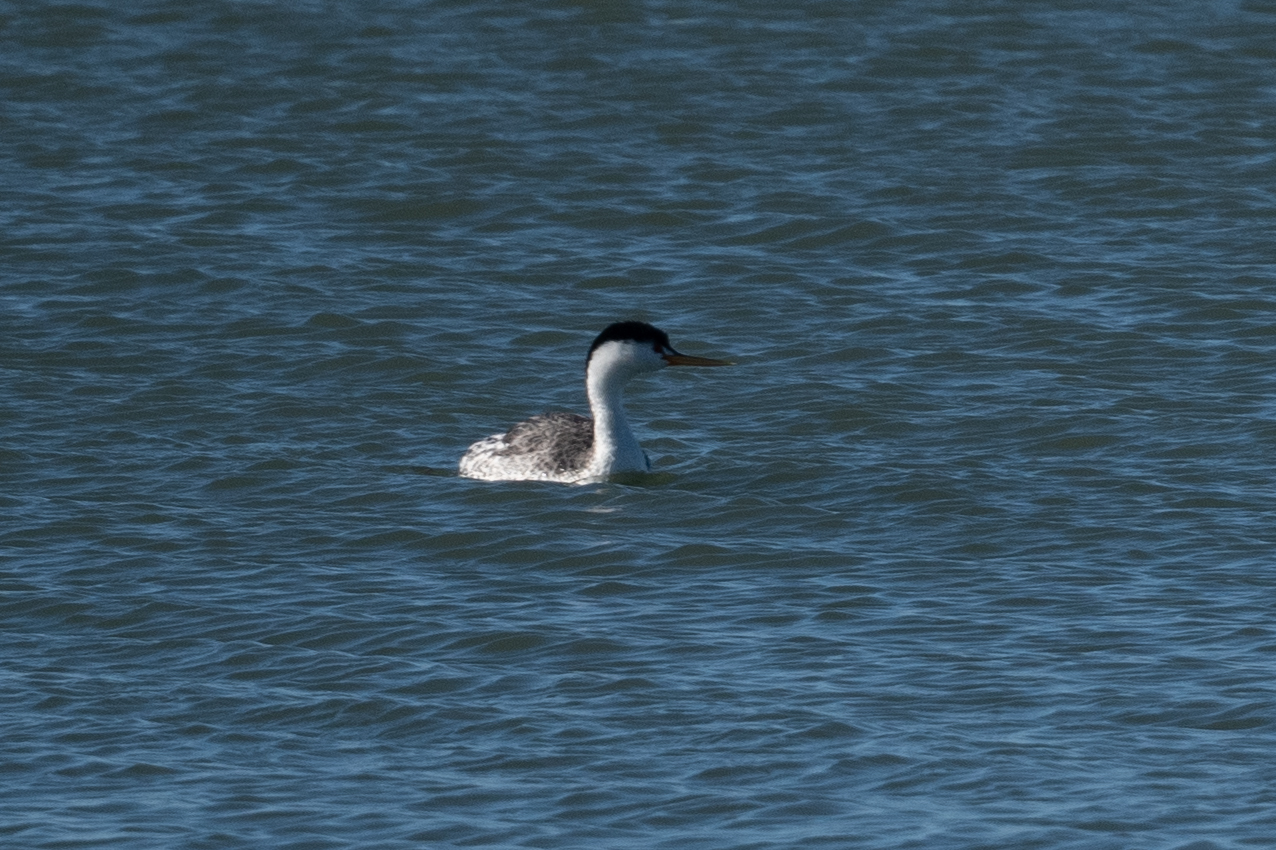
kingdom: Animalia
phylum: Chordata
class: Aves
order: Podicipediformes
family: Podicipedidae
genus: Aechmophorus
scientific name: Aechmophorus clarkii
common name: Clark's grebe
